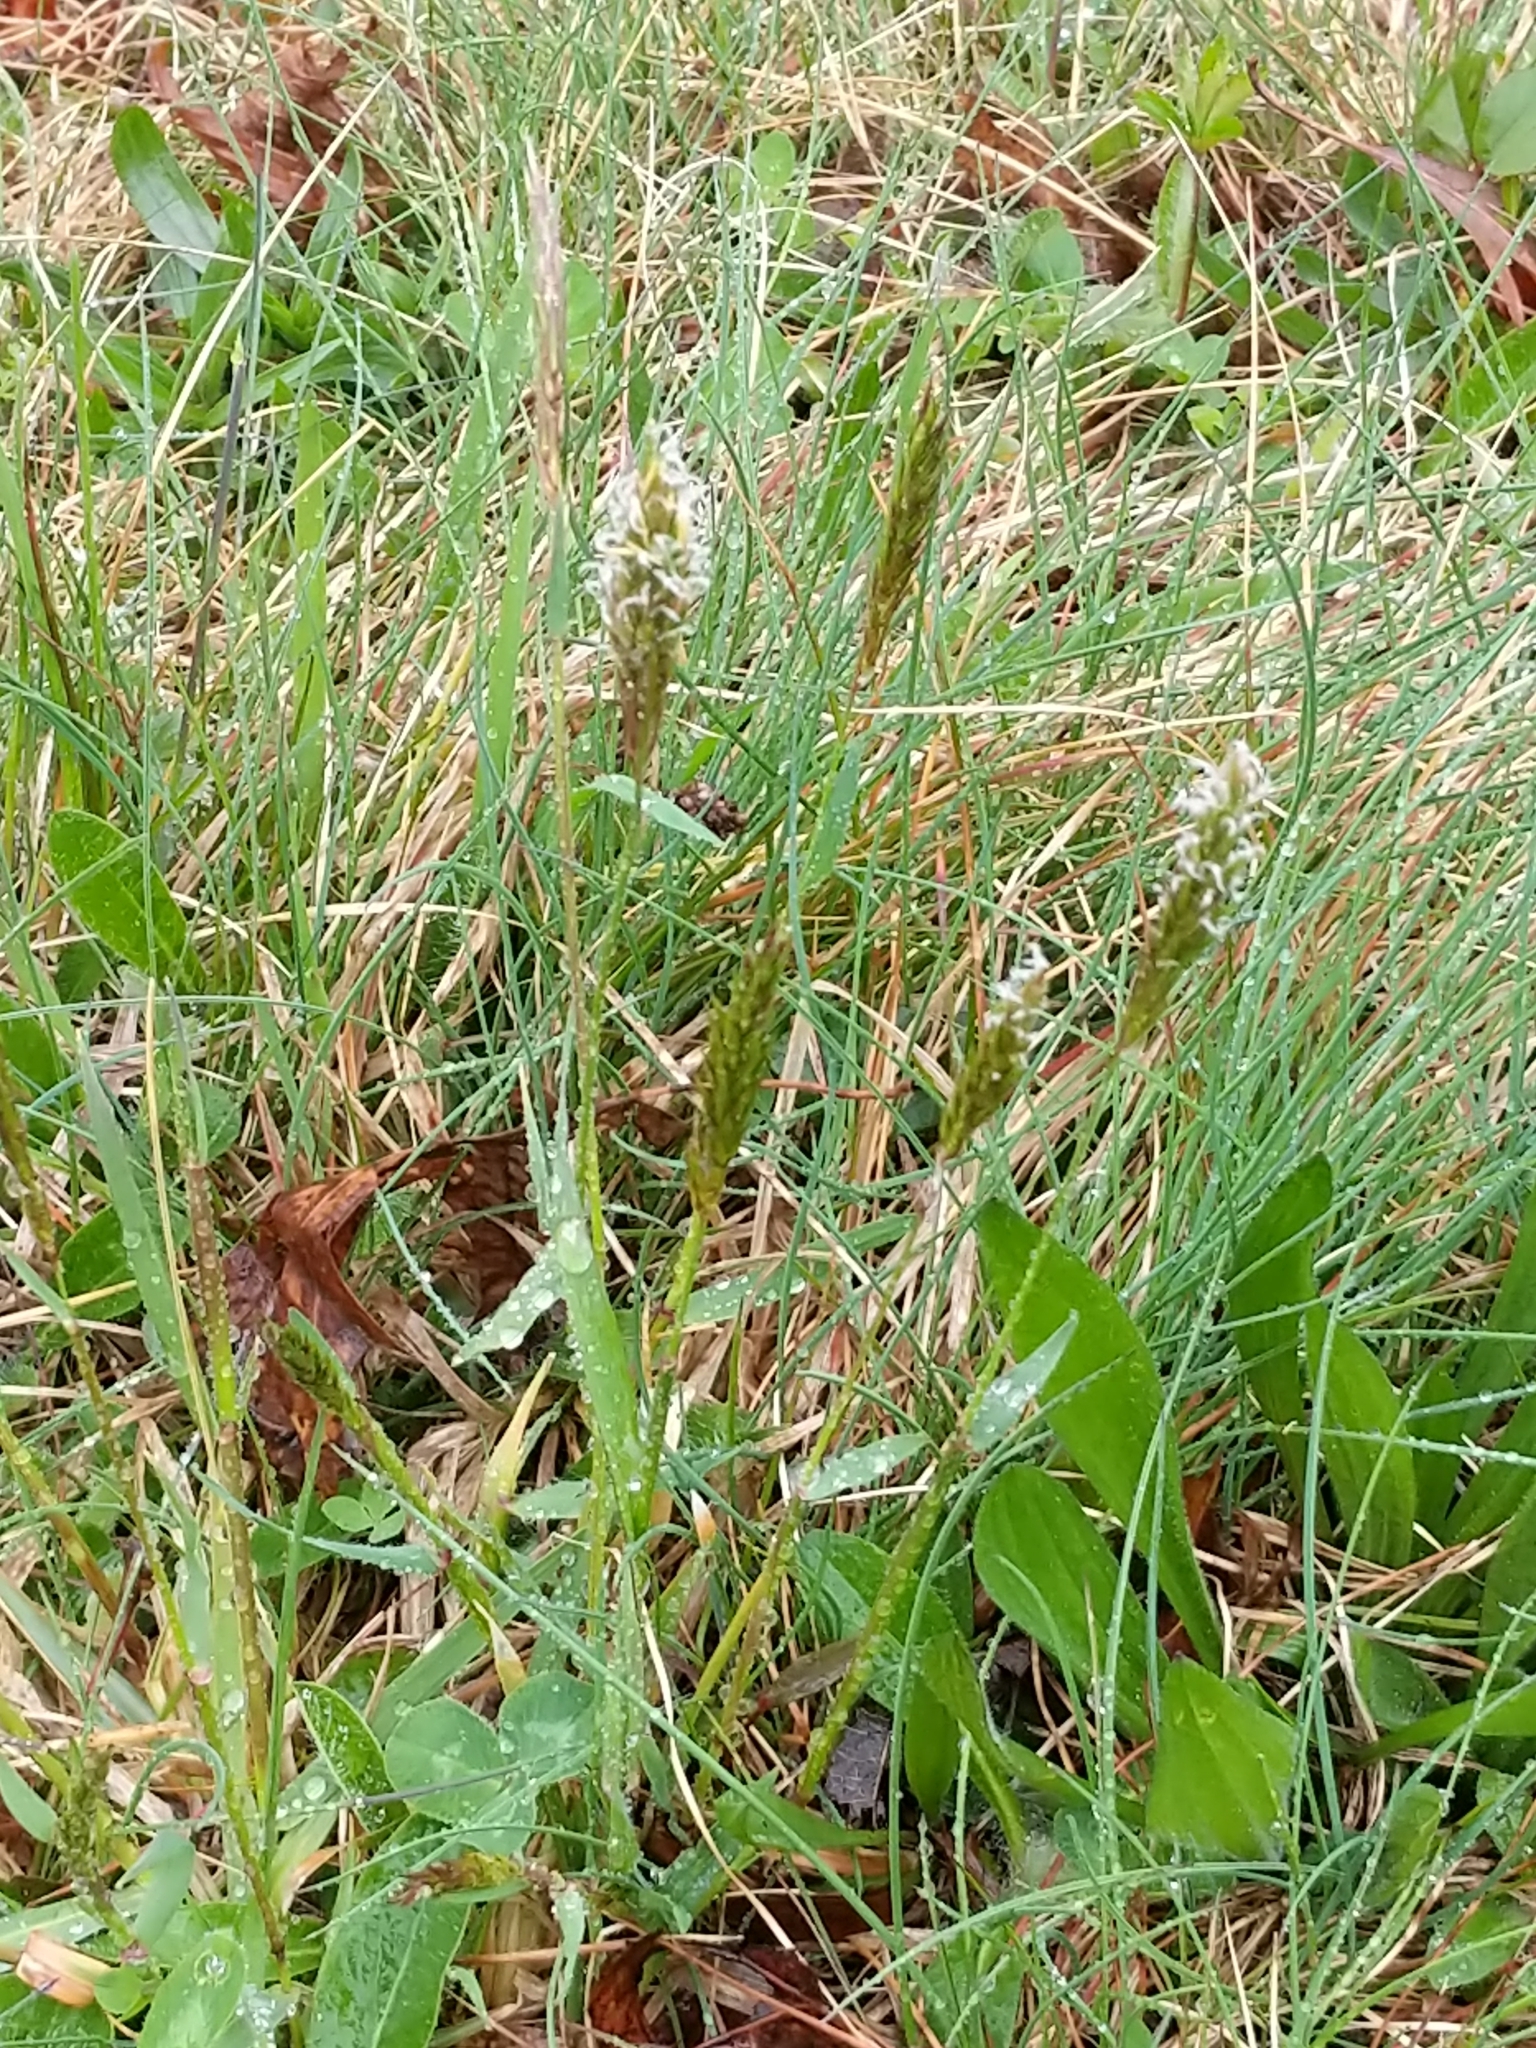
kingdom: Plantae
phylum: Tracheophyta
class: Liliopsida
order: Poales
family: Poaceae
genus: Anthoxanthum
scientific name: Anthoxanthum odoratum
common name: Sweet vernalgrass
